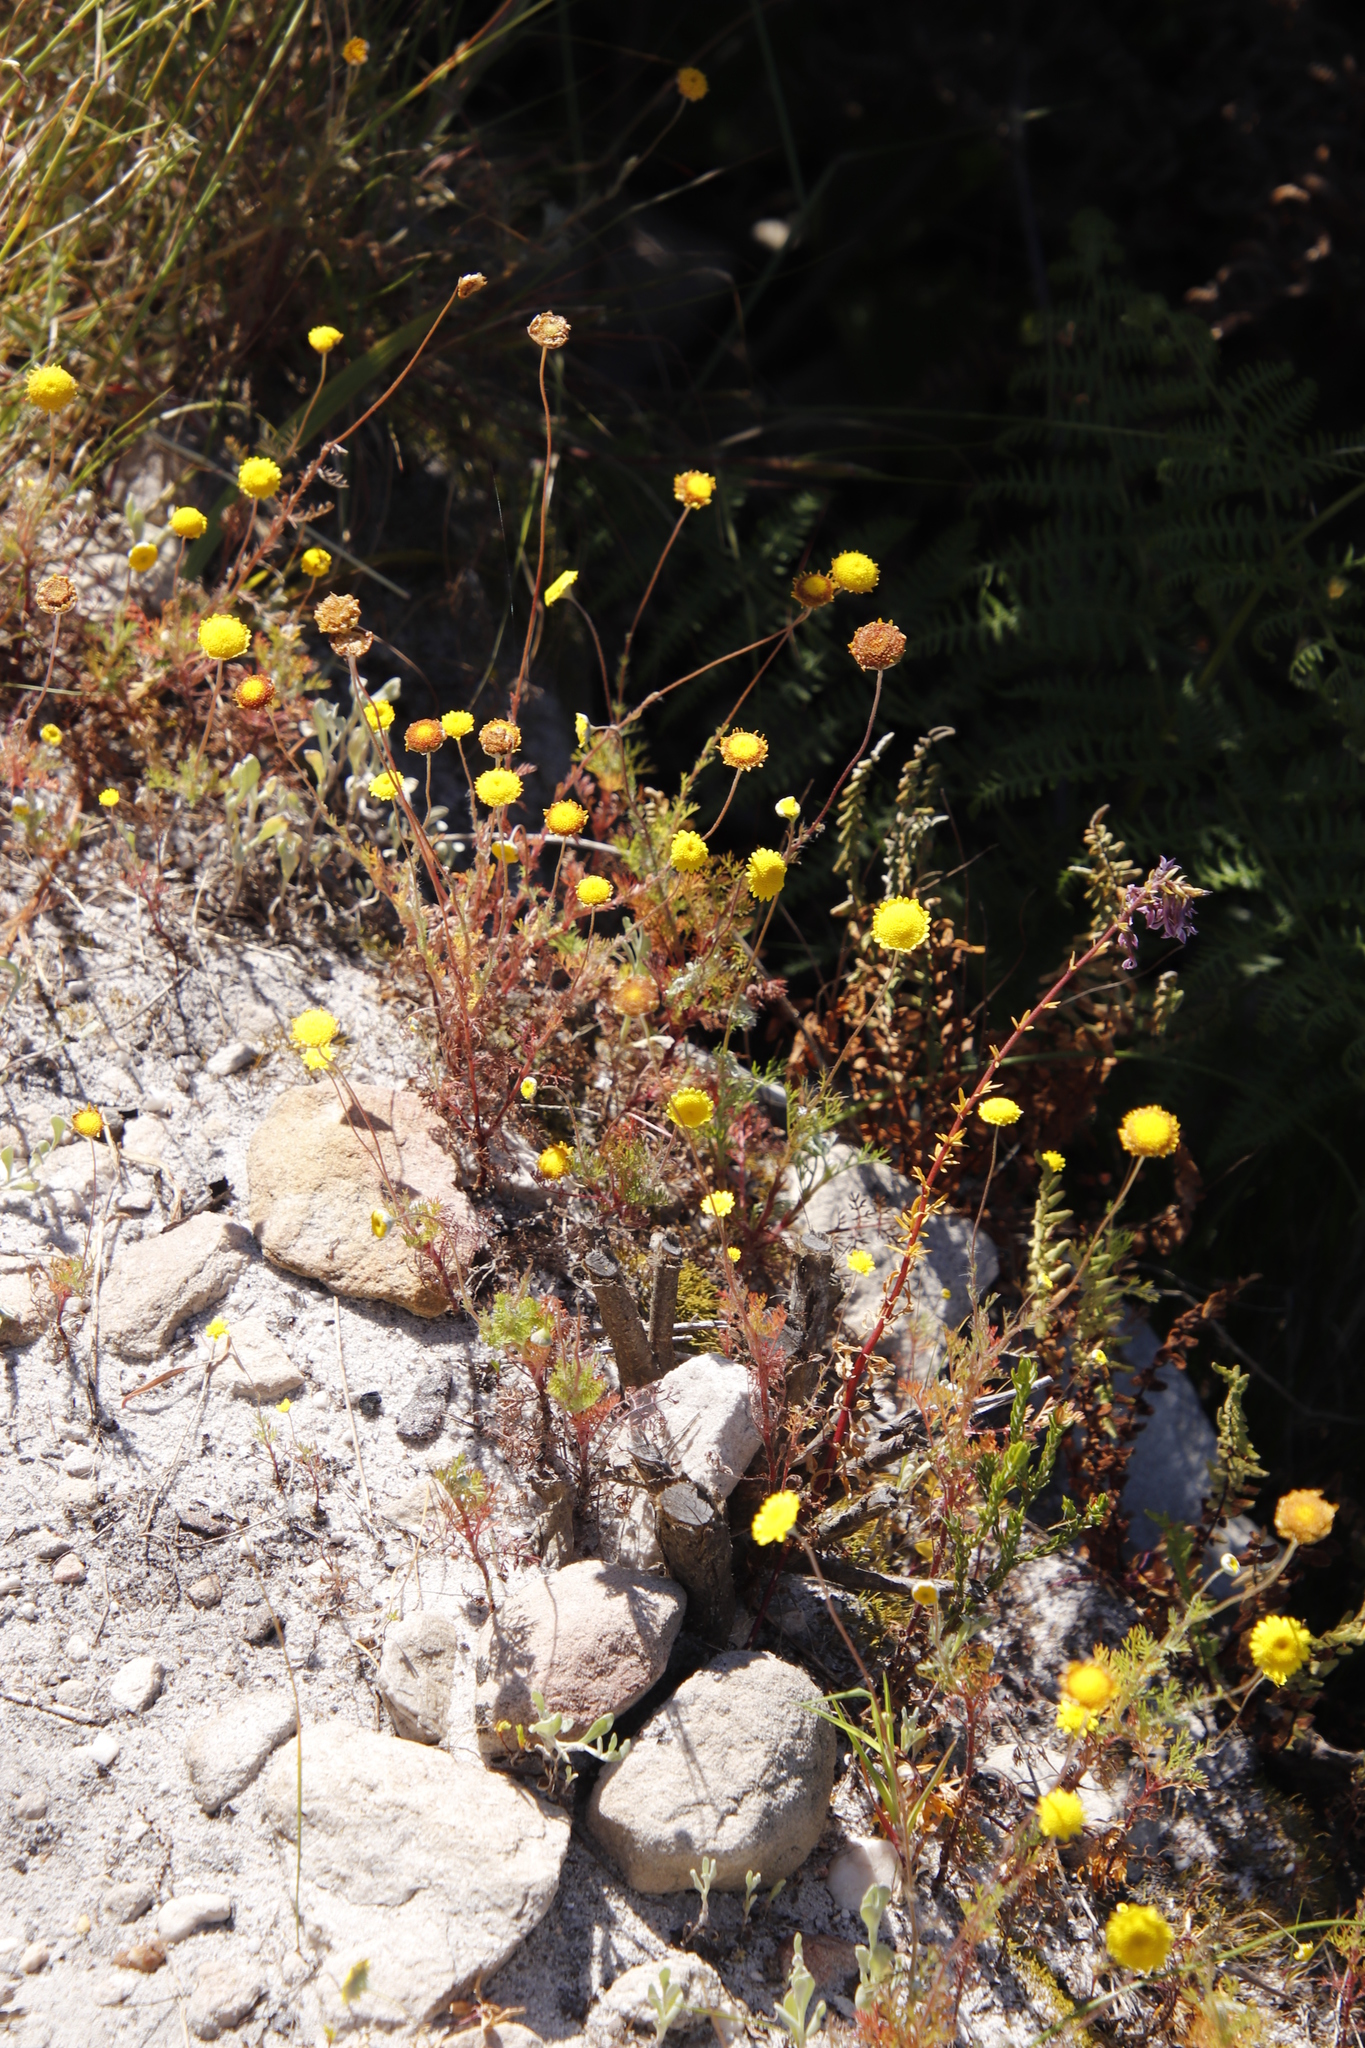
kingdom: Plantae
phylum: Tracheophyta
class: Magnoliopsida
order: Asterales
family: Asteraceae
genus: Cotula
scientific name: Cotula pruinosa
